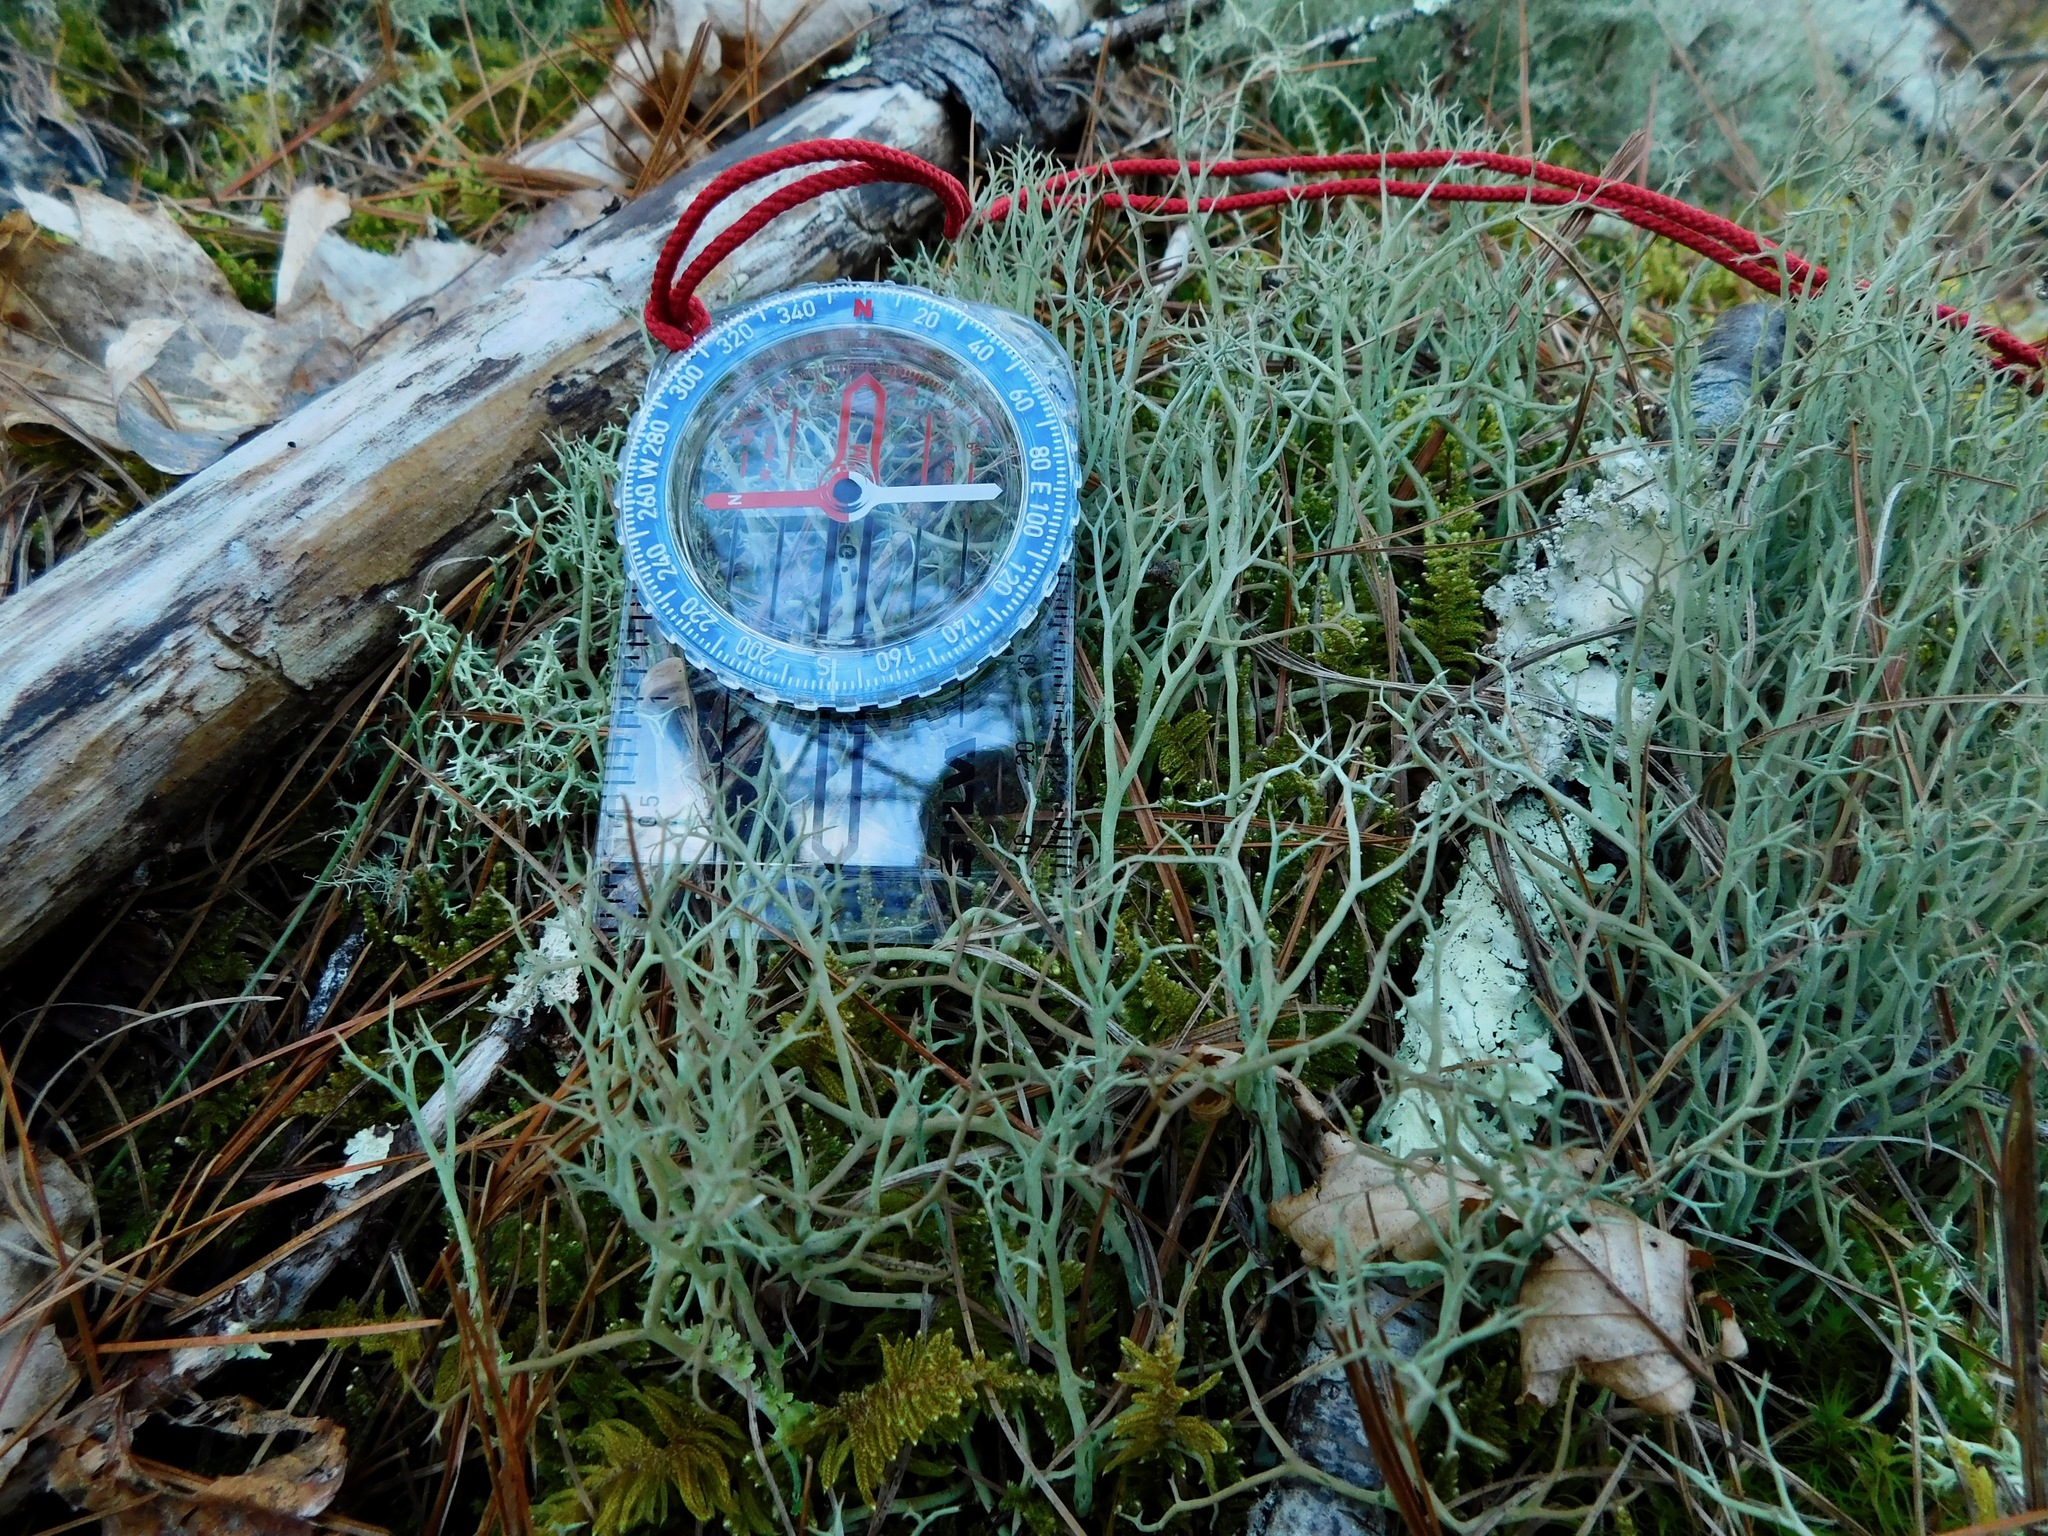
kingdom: Fungi
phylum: Ascomycota
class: Lecanoromycetes
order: Lecanorales
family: Cladoniaceae
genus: Cladonia
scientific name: Cladonia furcata
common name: Many-forked cladonia
